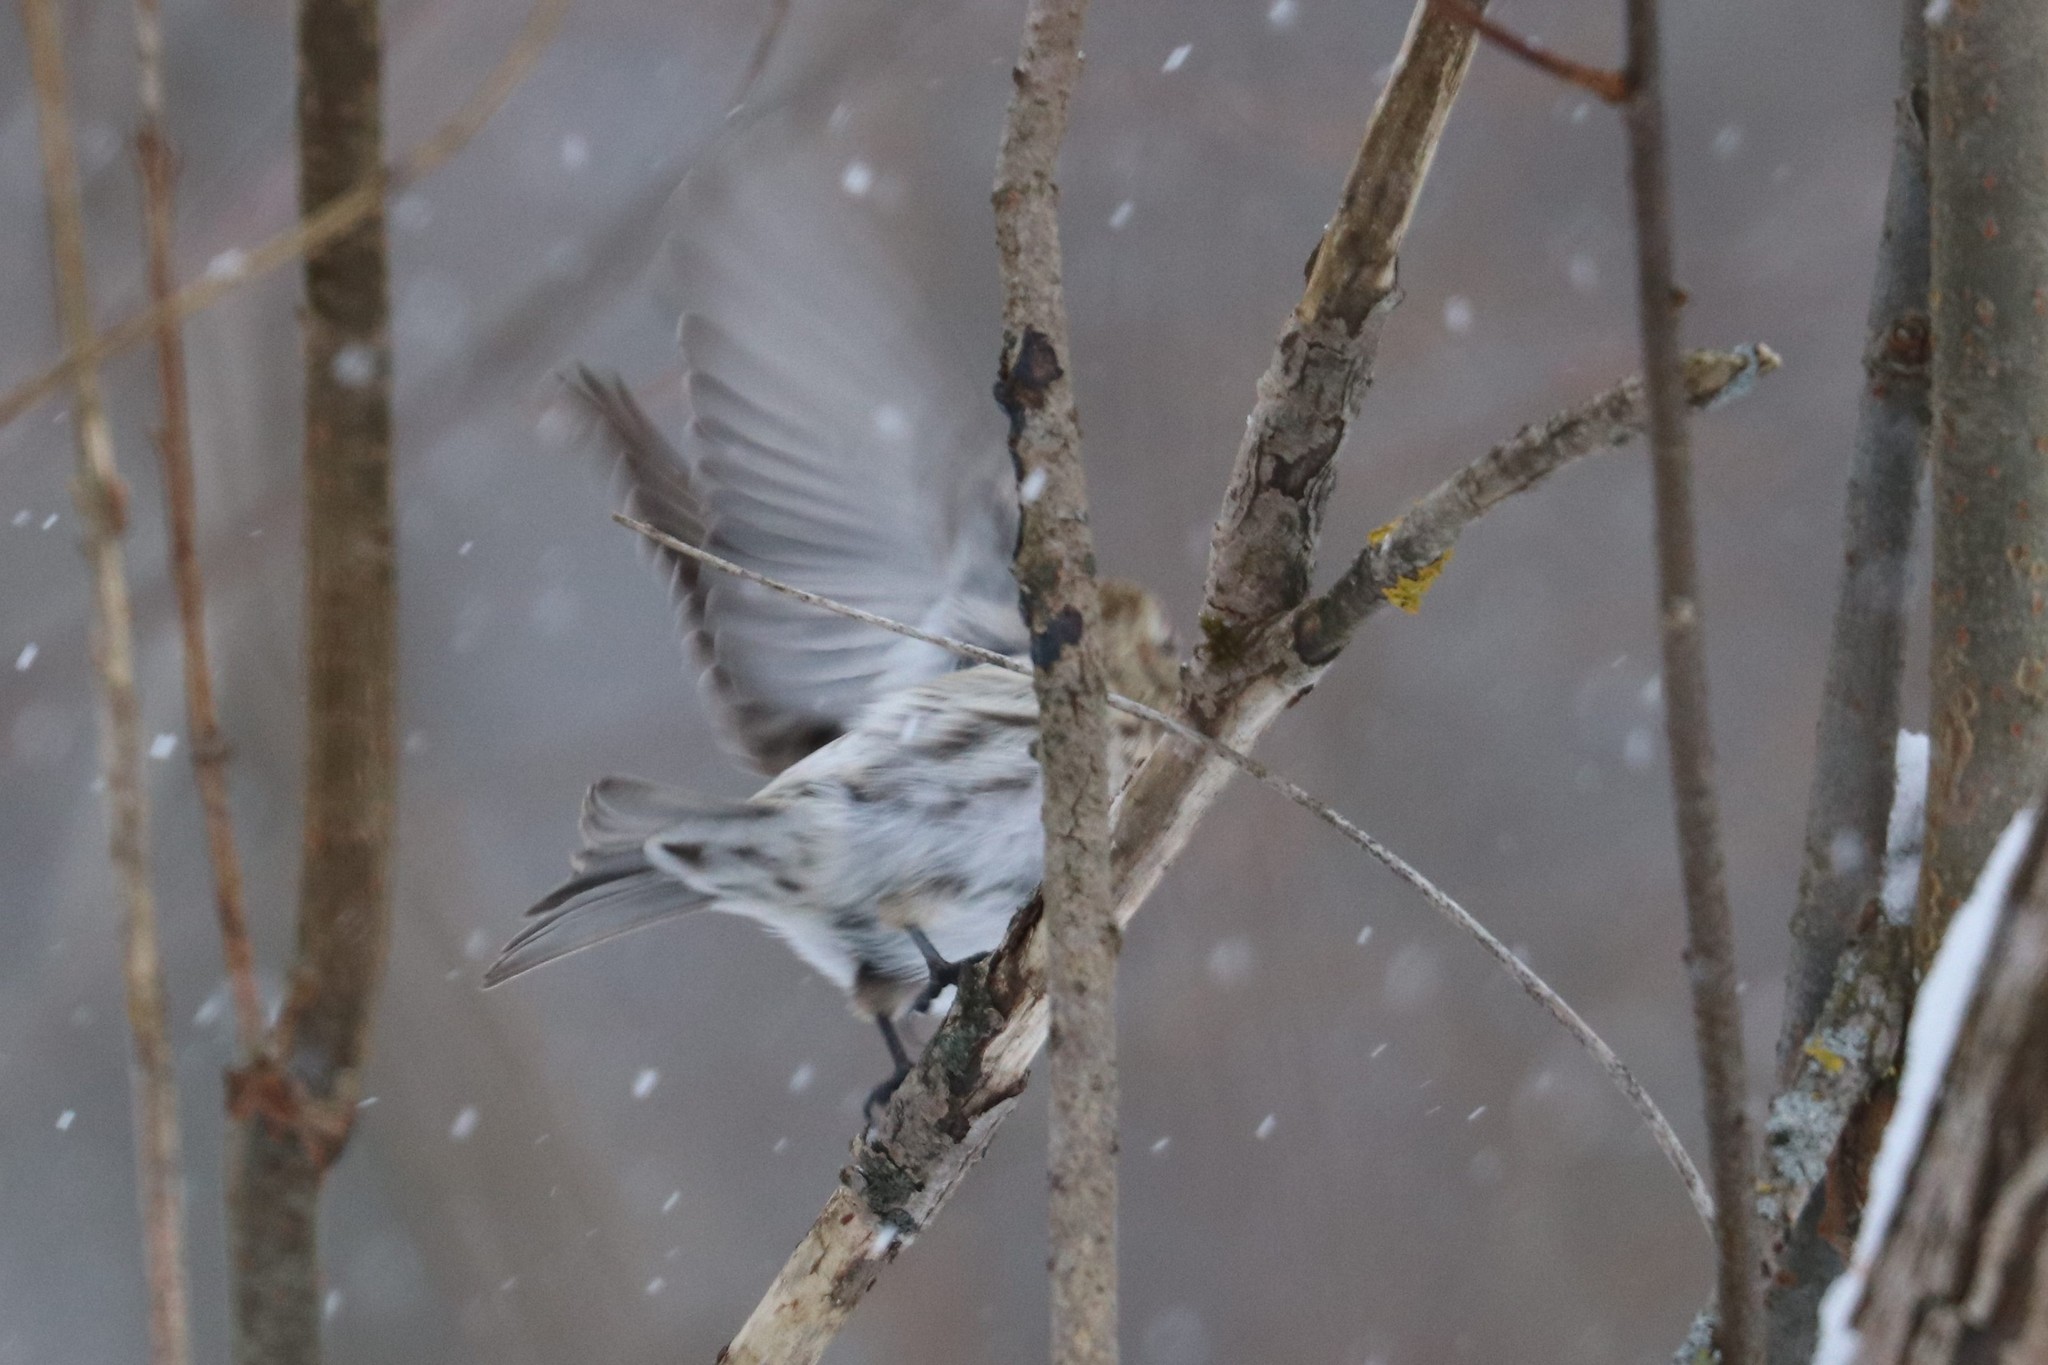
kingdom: Animalia
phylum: Chordata
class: Aves
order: Passeriformes
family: Fringillidae
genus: Acanthis
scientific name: Acanthis flammea
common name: Common redpoll
